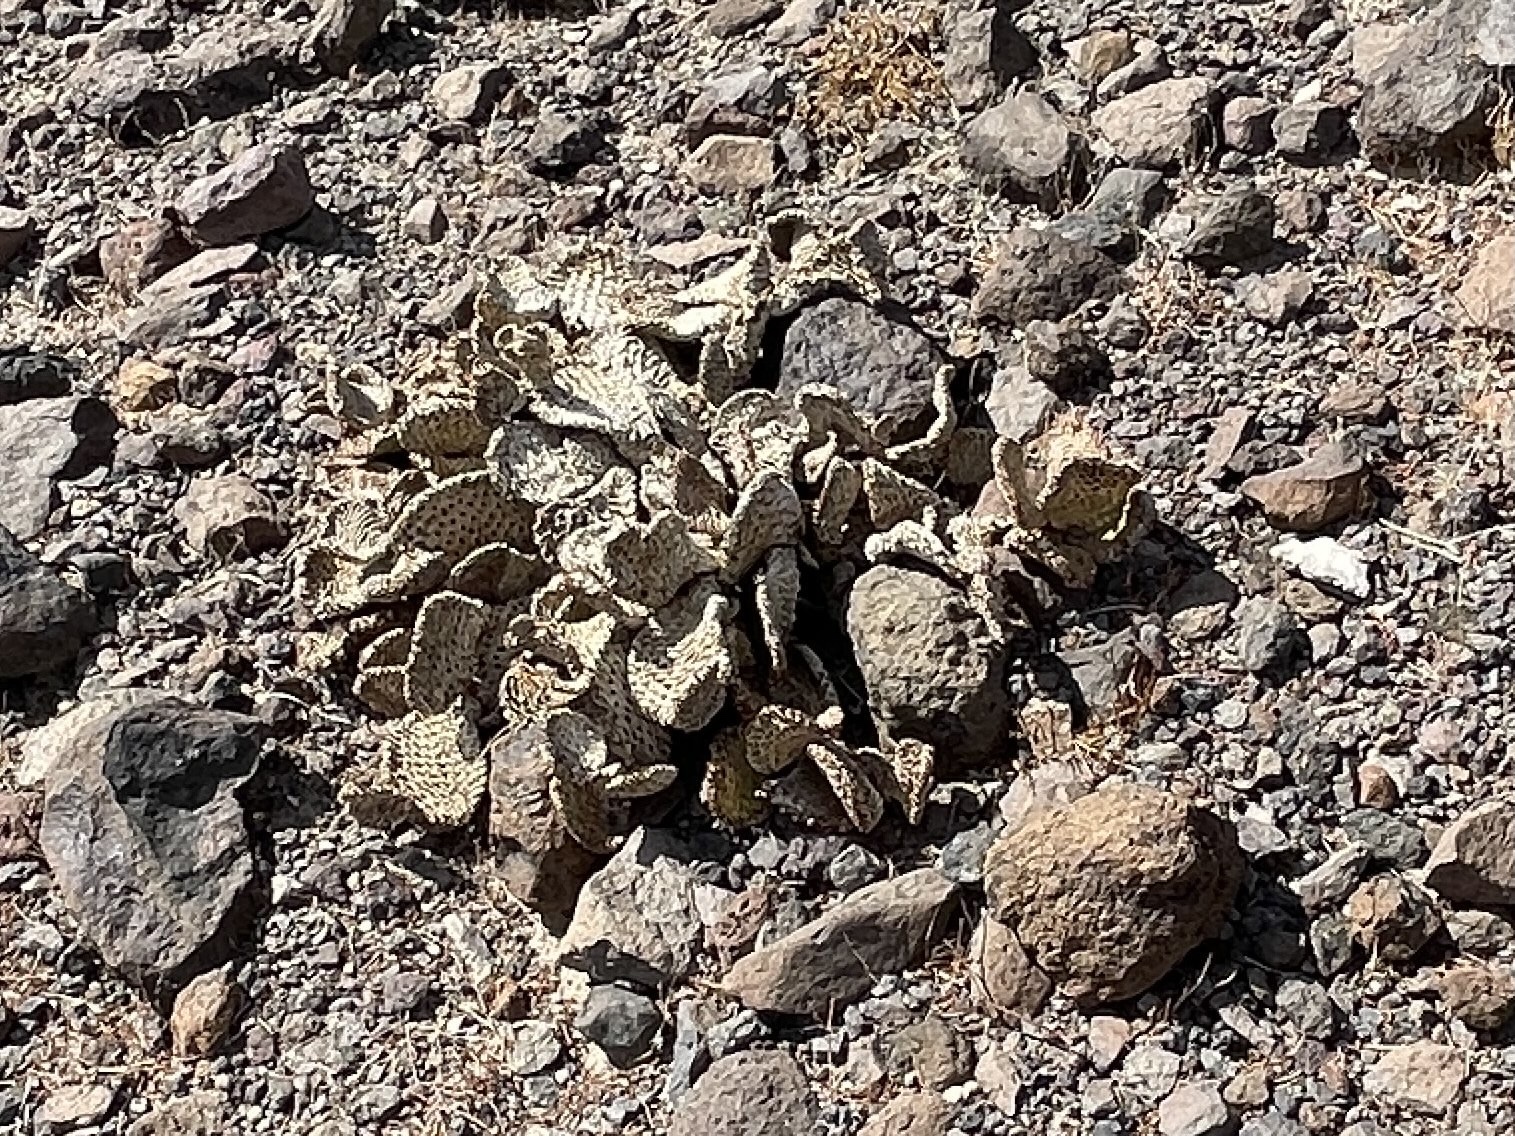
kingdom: Plantae
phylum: Tracheophyta
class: Magnoliopsida
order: Caryophyllales
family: Cactaceae
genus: Opuntia
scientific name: Opuntia basilaris
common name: Beavertail prickly-pear
